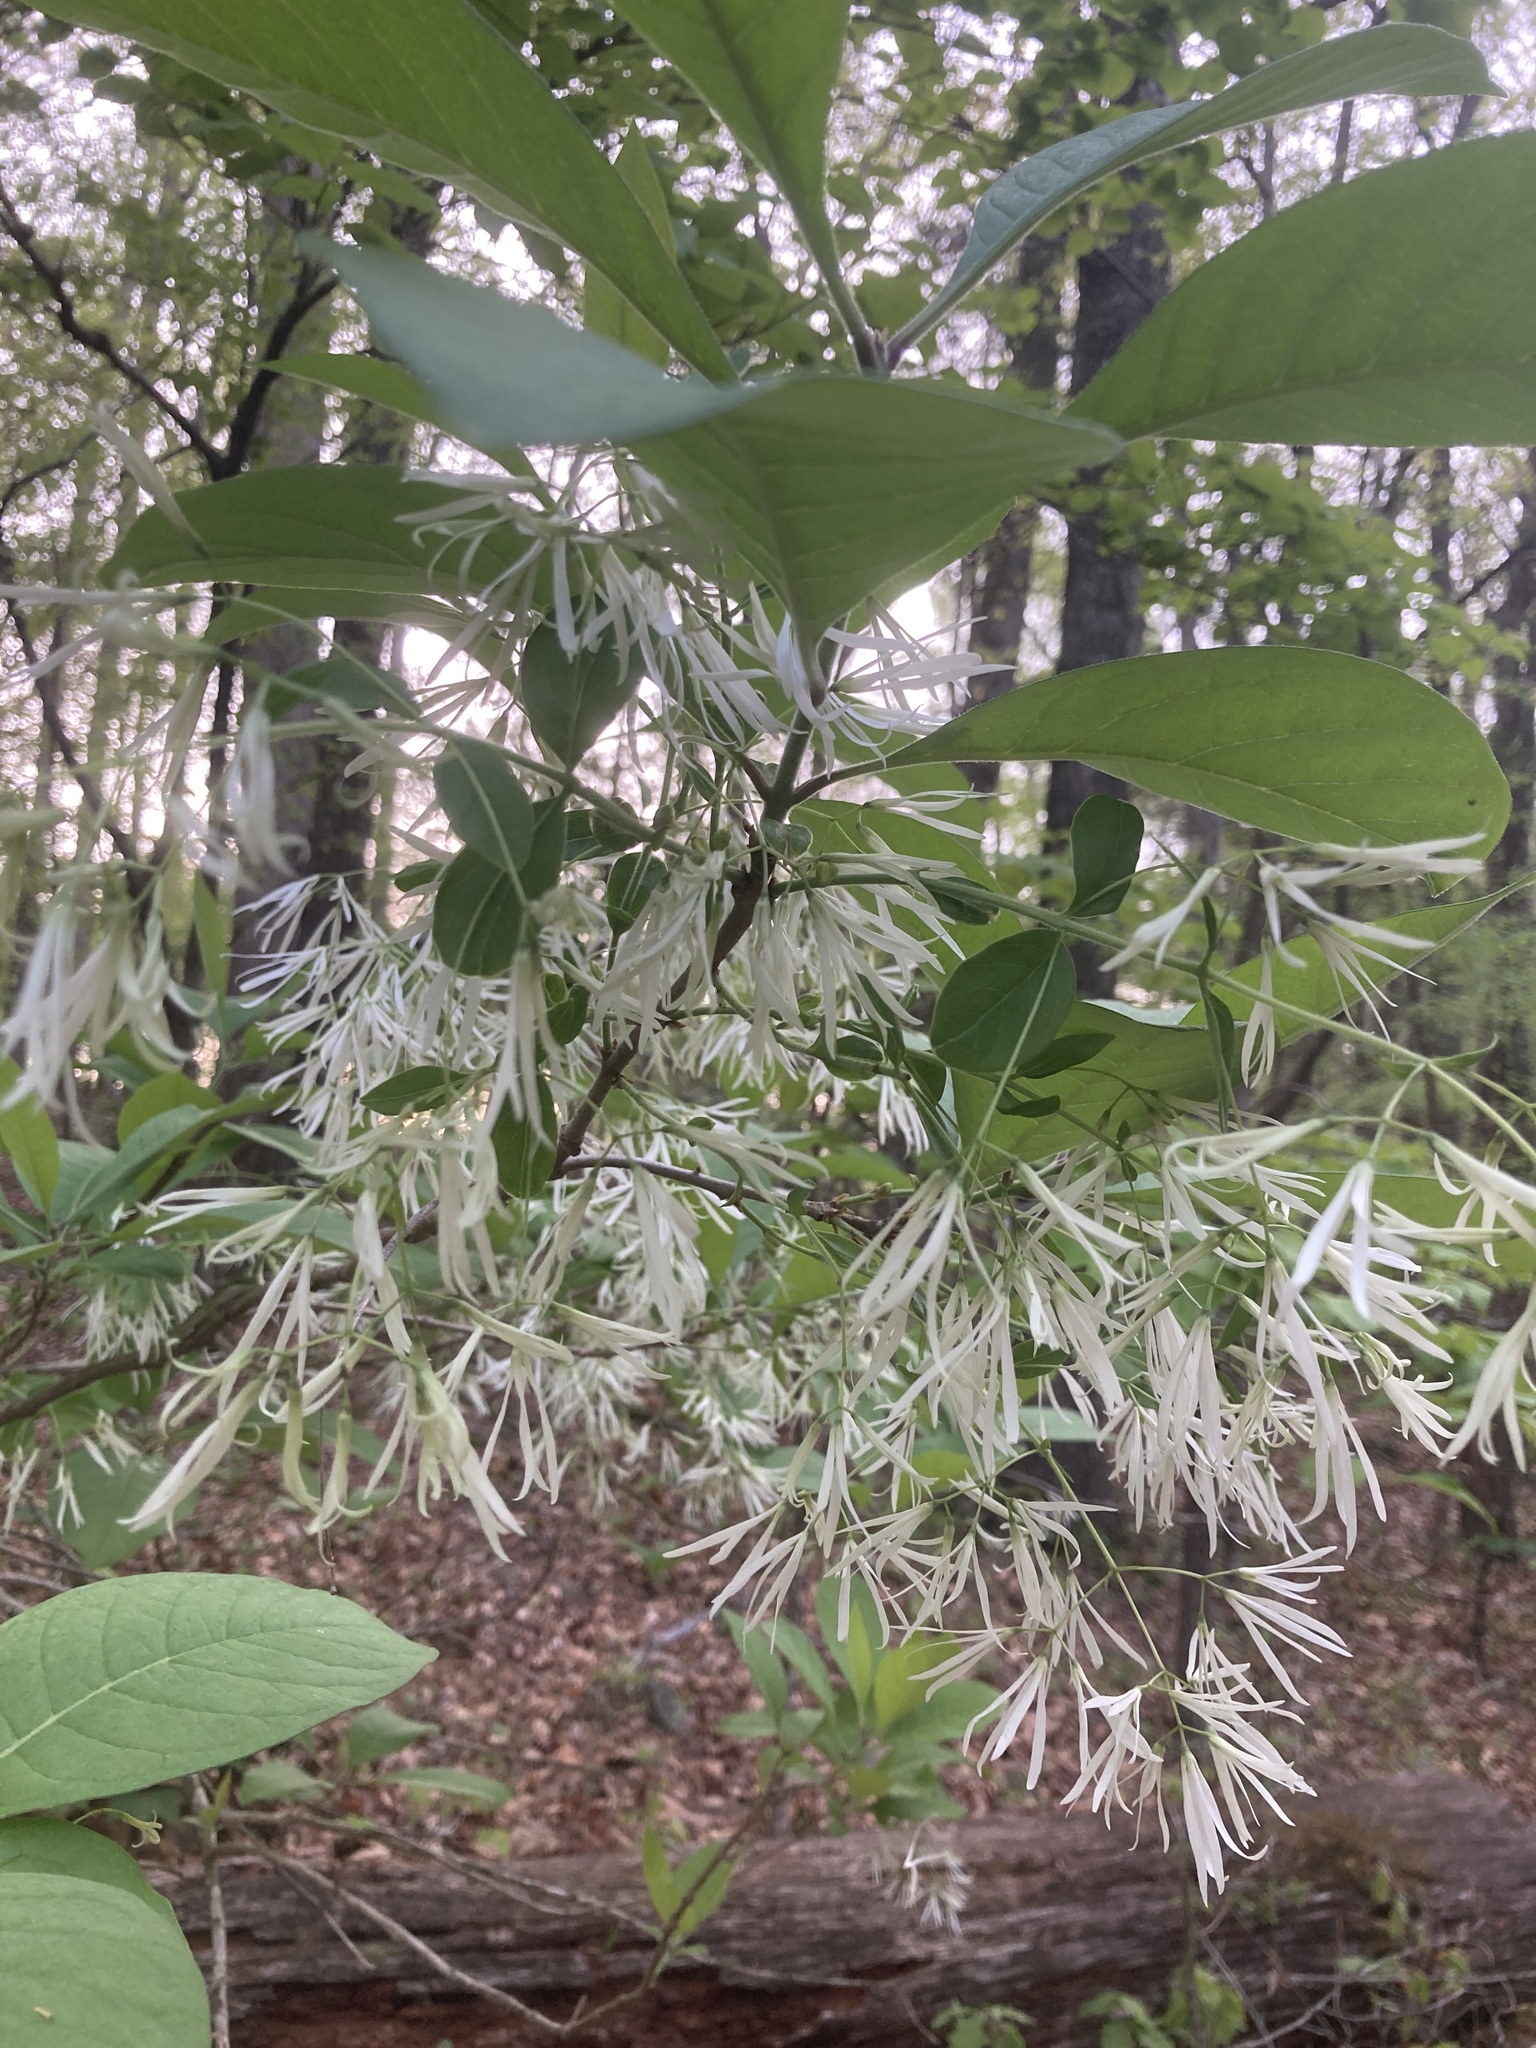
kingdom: Plantae
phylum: Tracheophyta
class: Magnoliopsida
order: Lamiales
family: Oleaceae
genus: Chionanthus
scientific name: Chionanthus virginicus
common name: American fringetree
